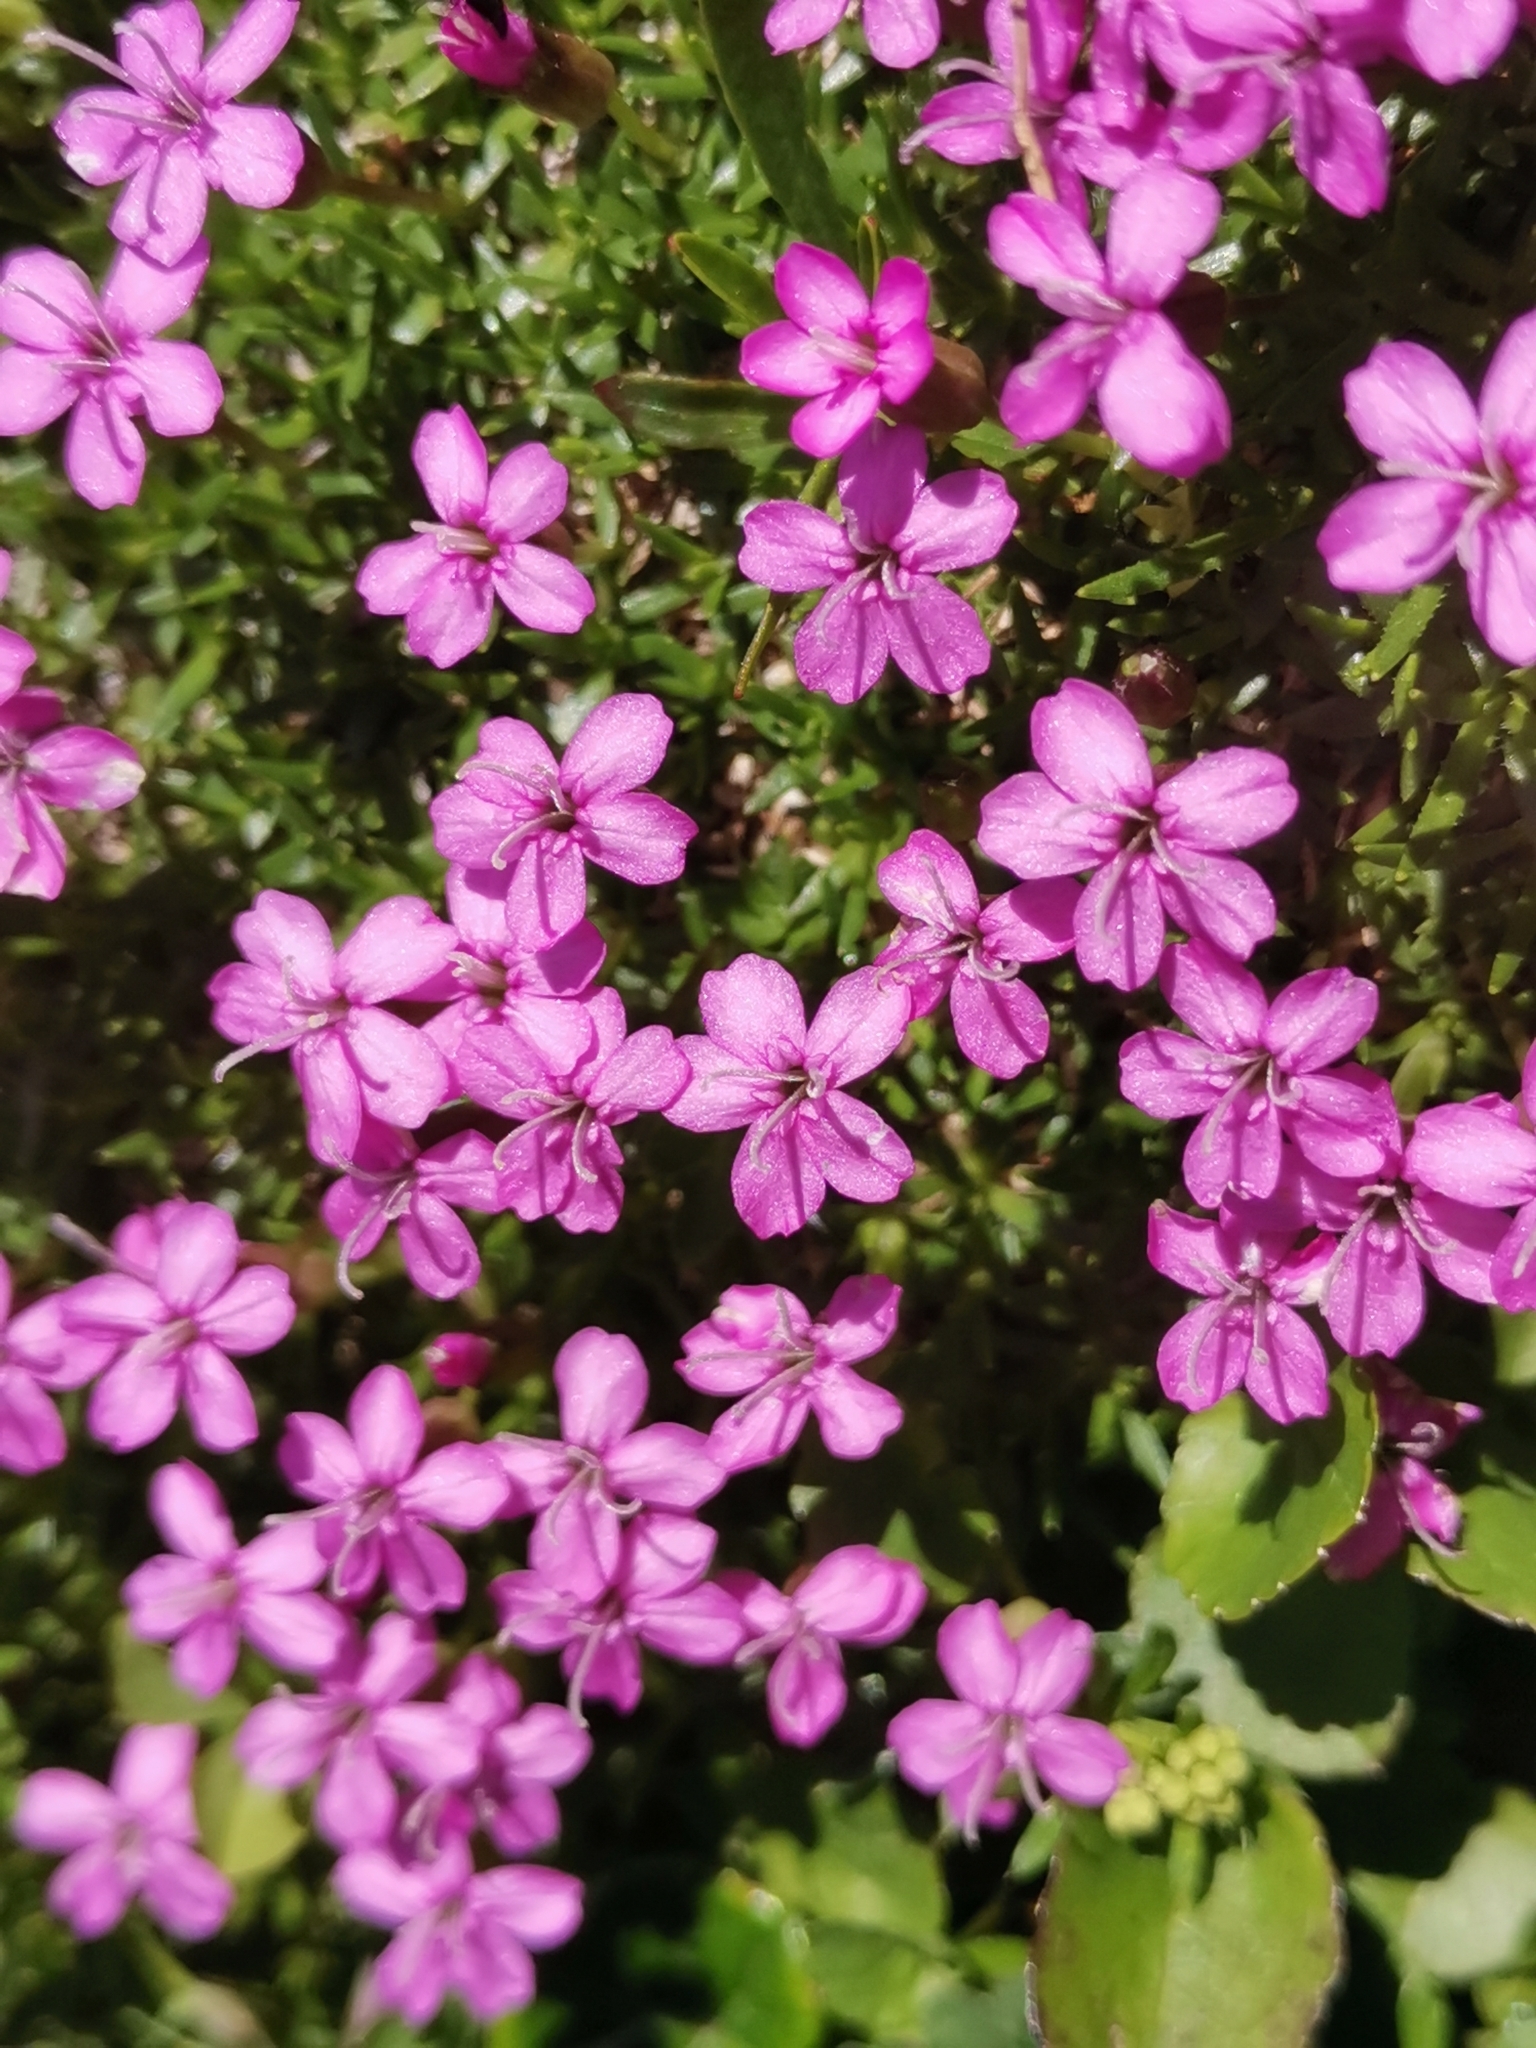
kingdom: Plantae
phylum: Tracheophyta
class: Magnoliopsida
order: Caryophyllales
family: Caryophyllaceae
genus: Silene
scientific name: Silene acaulis
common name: Moss campion
